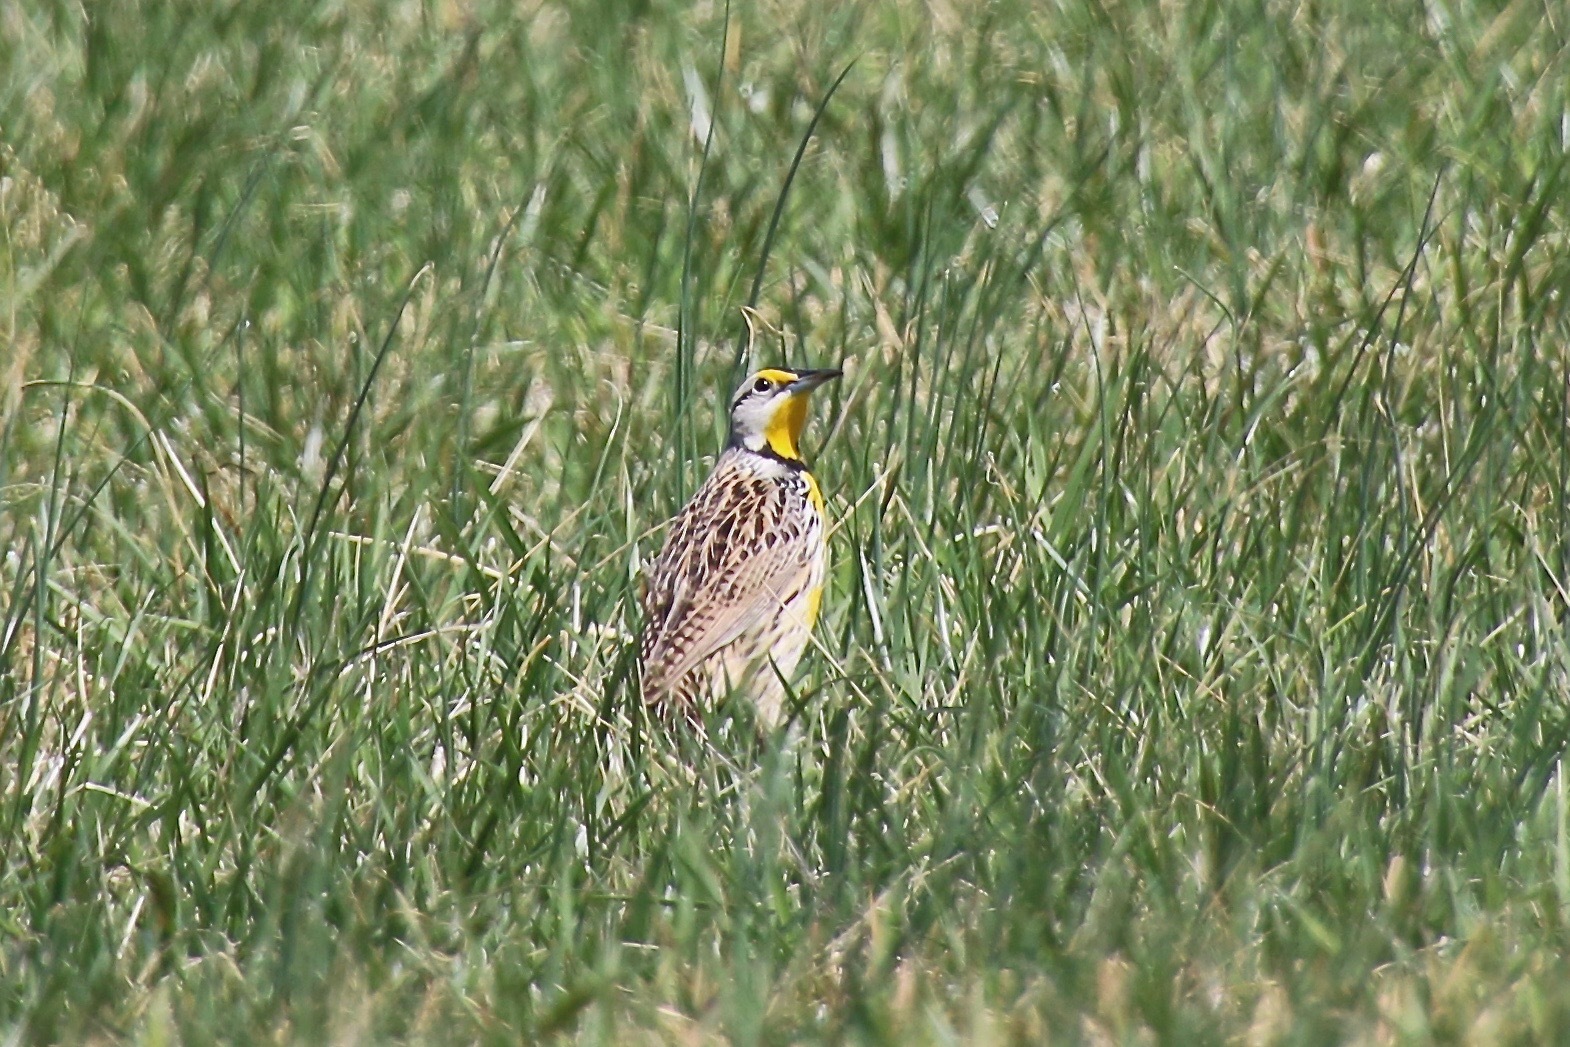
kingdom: Animalia
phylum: Chordata
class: Aves
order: Passeriformes
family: Icteridae
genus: Sturnella
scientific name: Sturnella magna
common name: Eastern meadowlark
